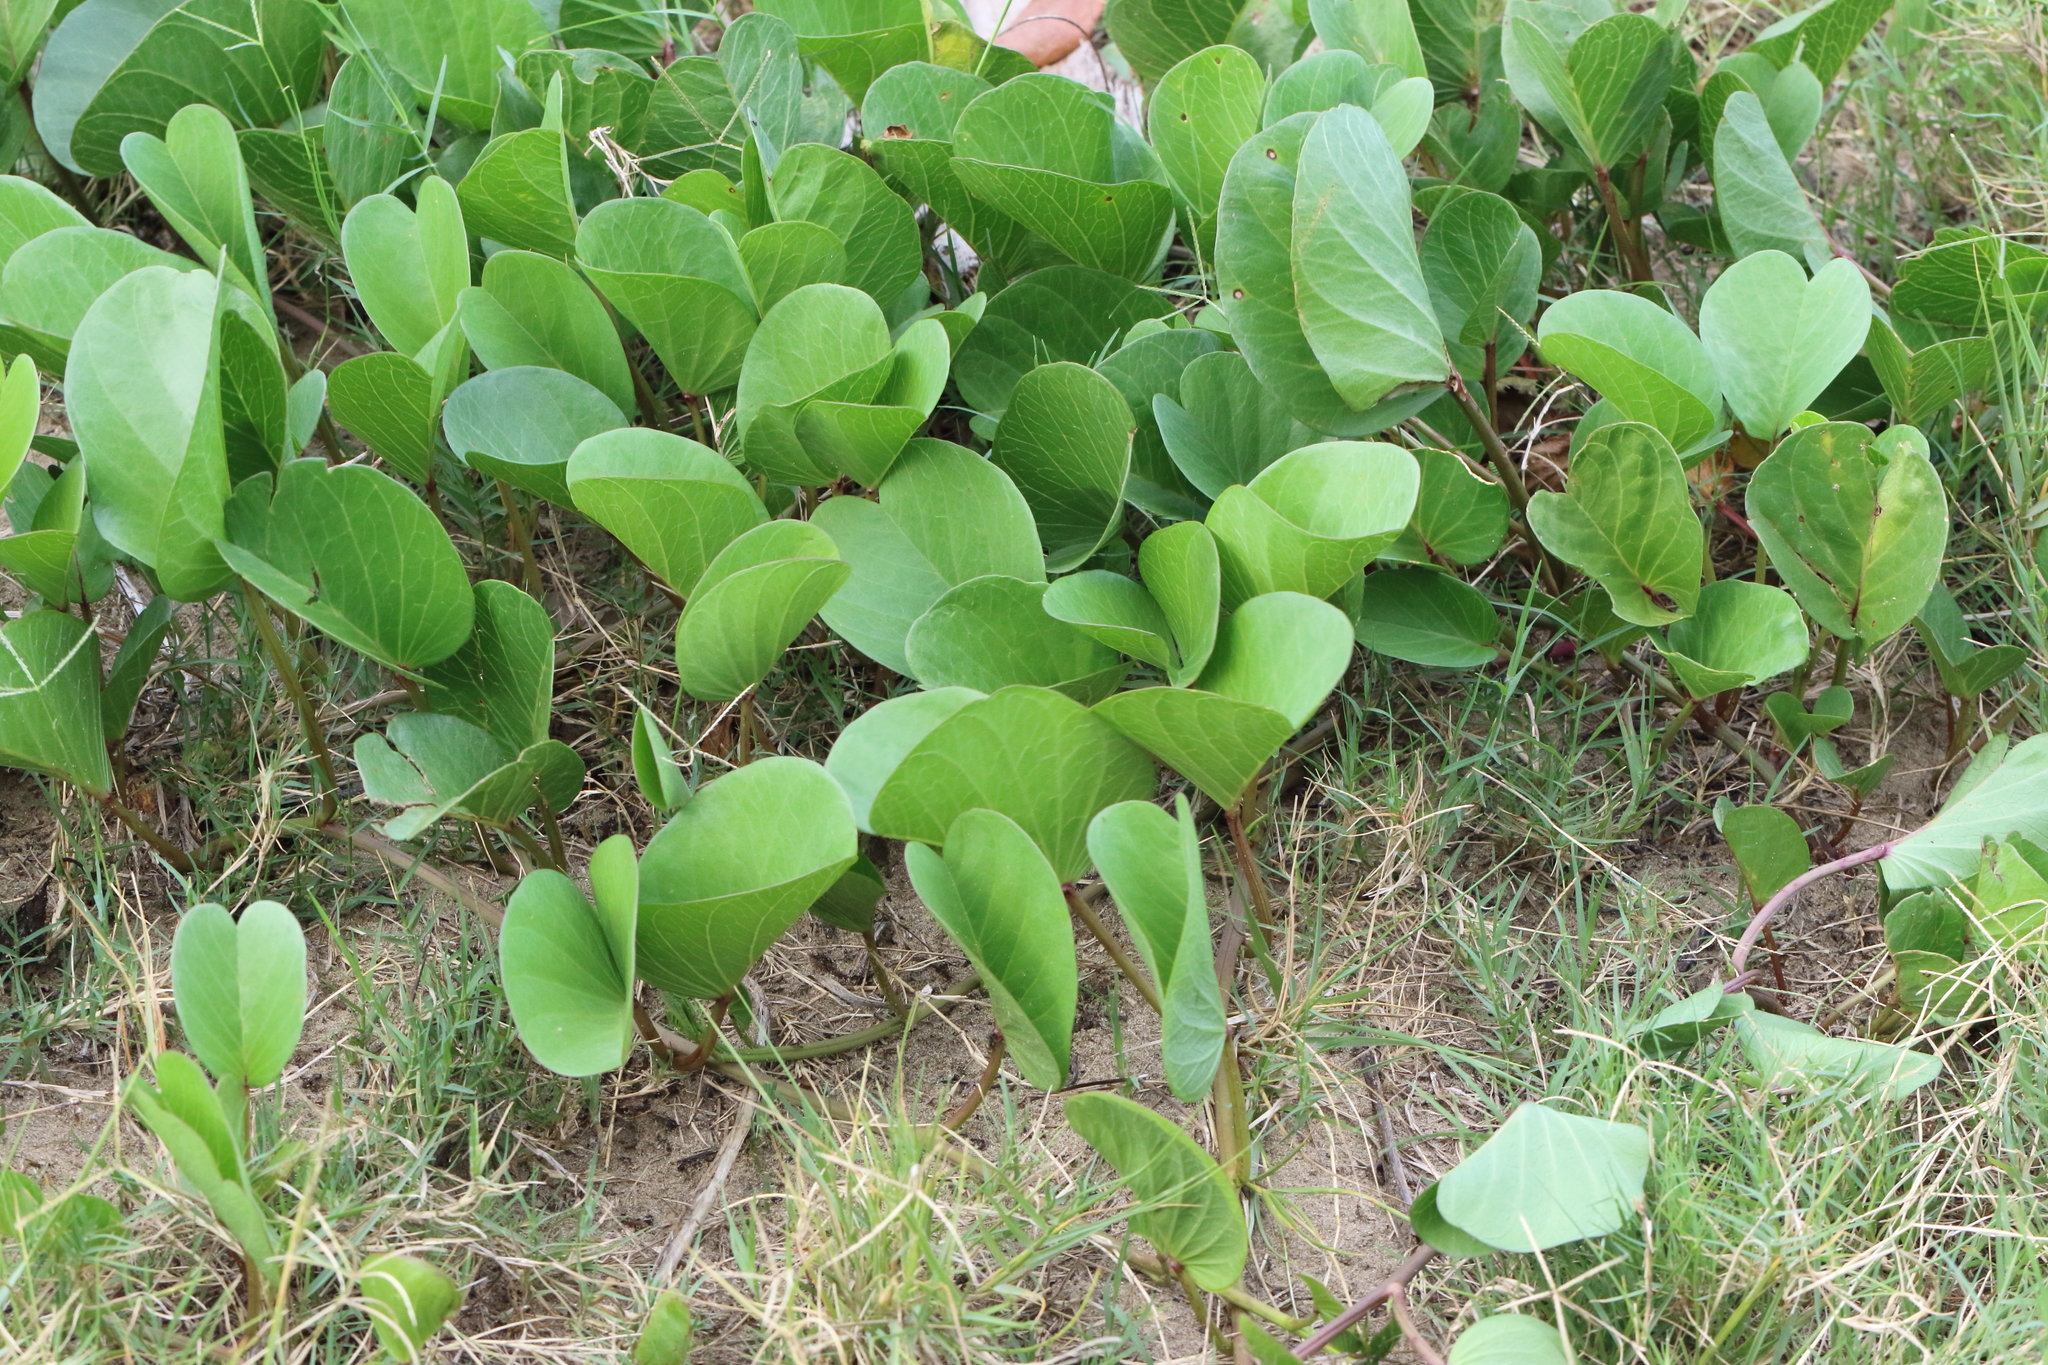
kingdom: Plantae
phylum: Tracheophyta
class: Magnoliopsida
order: Solanales
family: Convolvulaceae
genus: Ipomoea
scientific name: Ipomoea pes-caprae
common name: Beach morning glory
